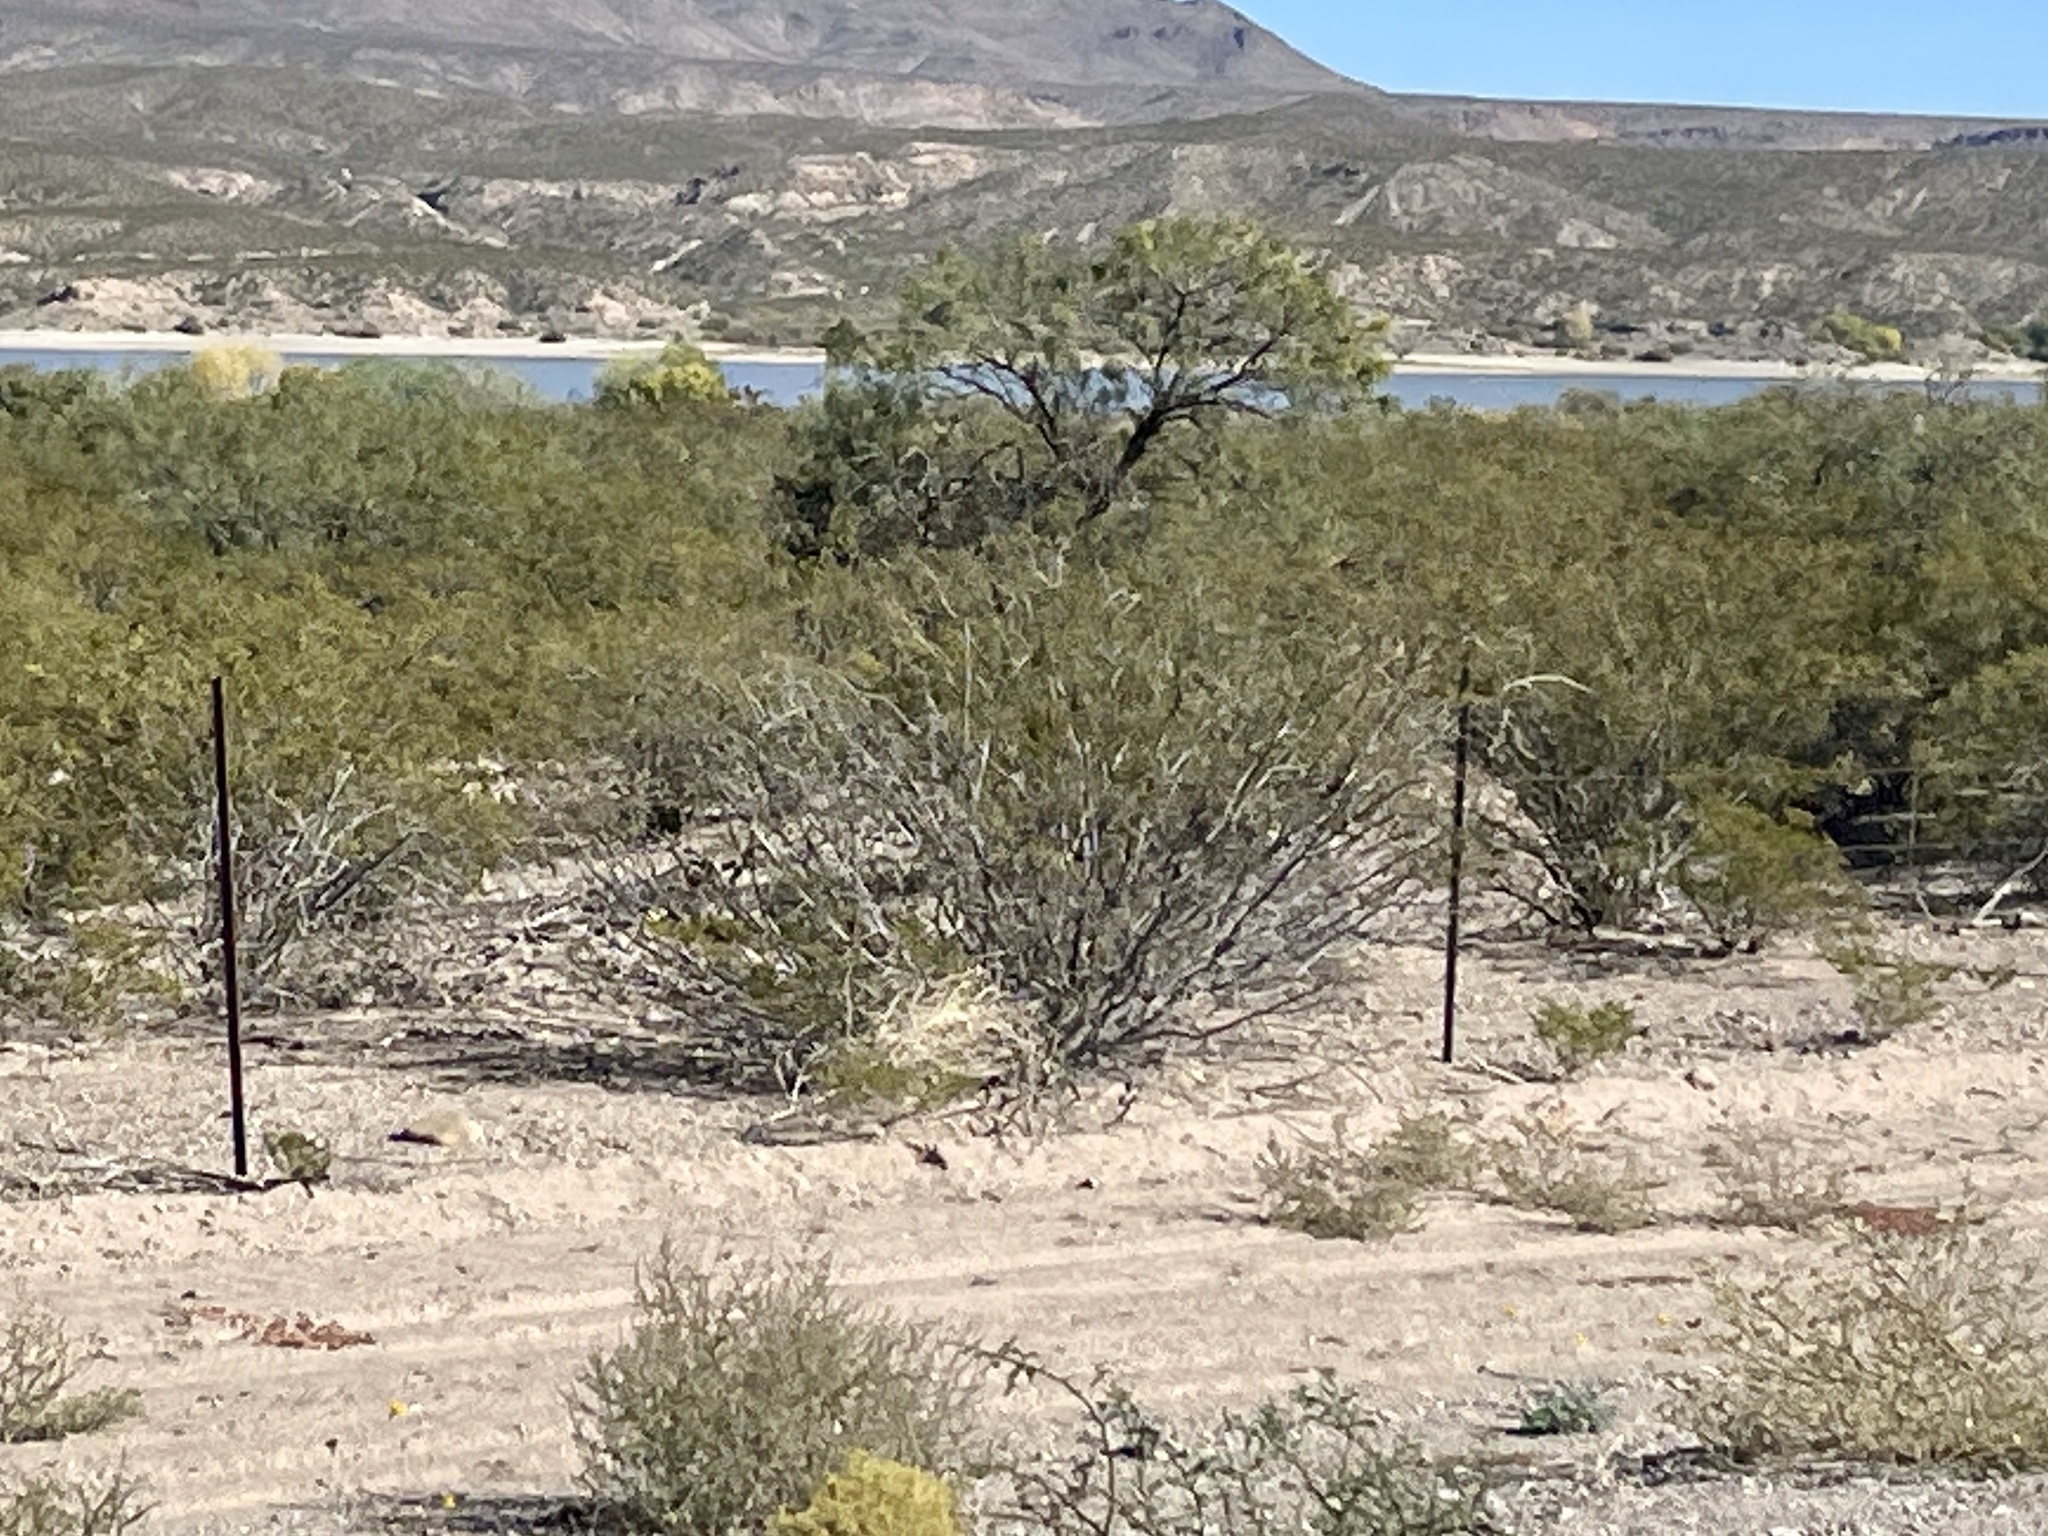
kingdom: Plantae
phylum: Tracheophyta
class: Magnoliopsida
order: Zygophyllales
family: Zygophyllaceae
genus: Larrea
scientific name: Larrea tridentata
